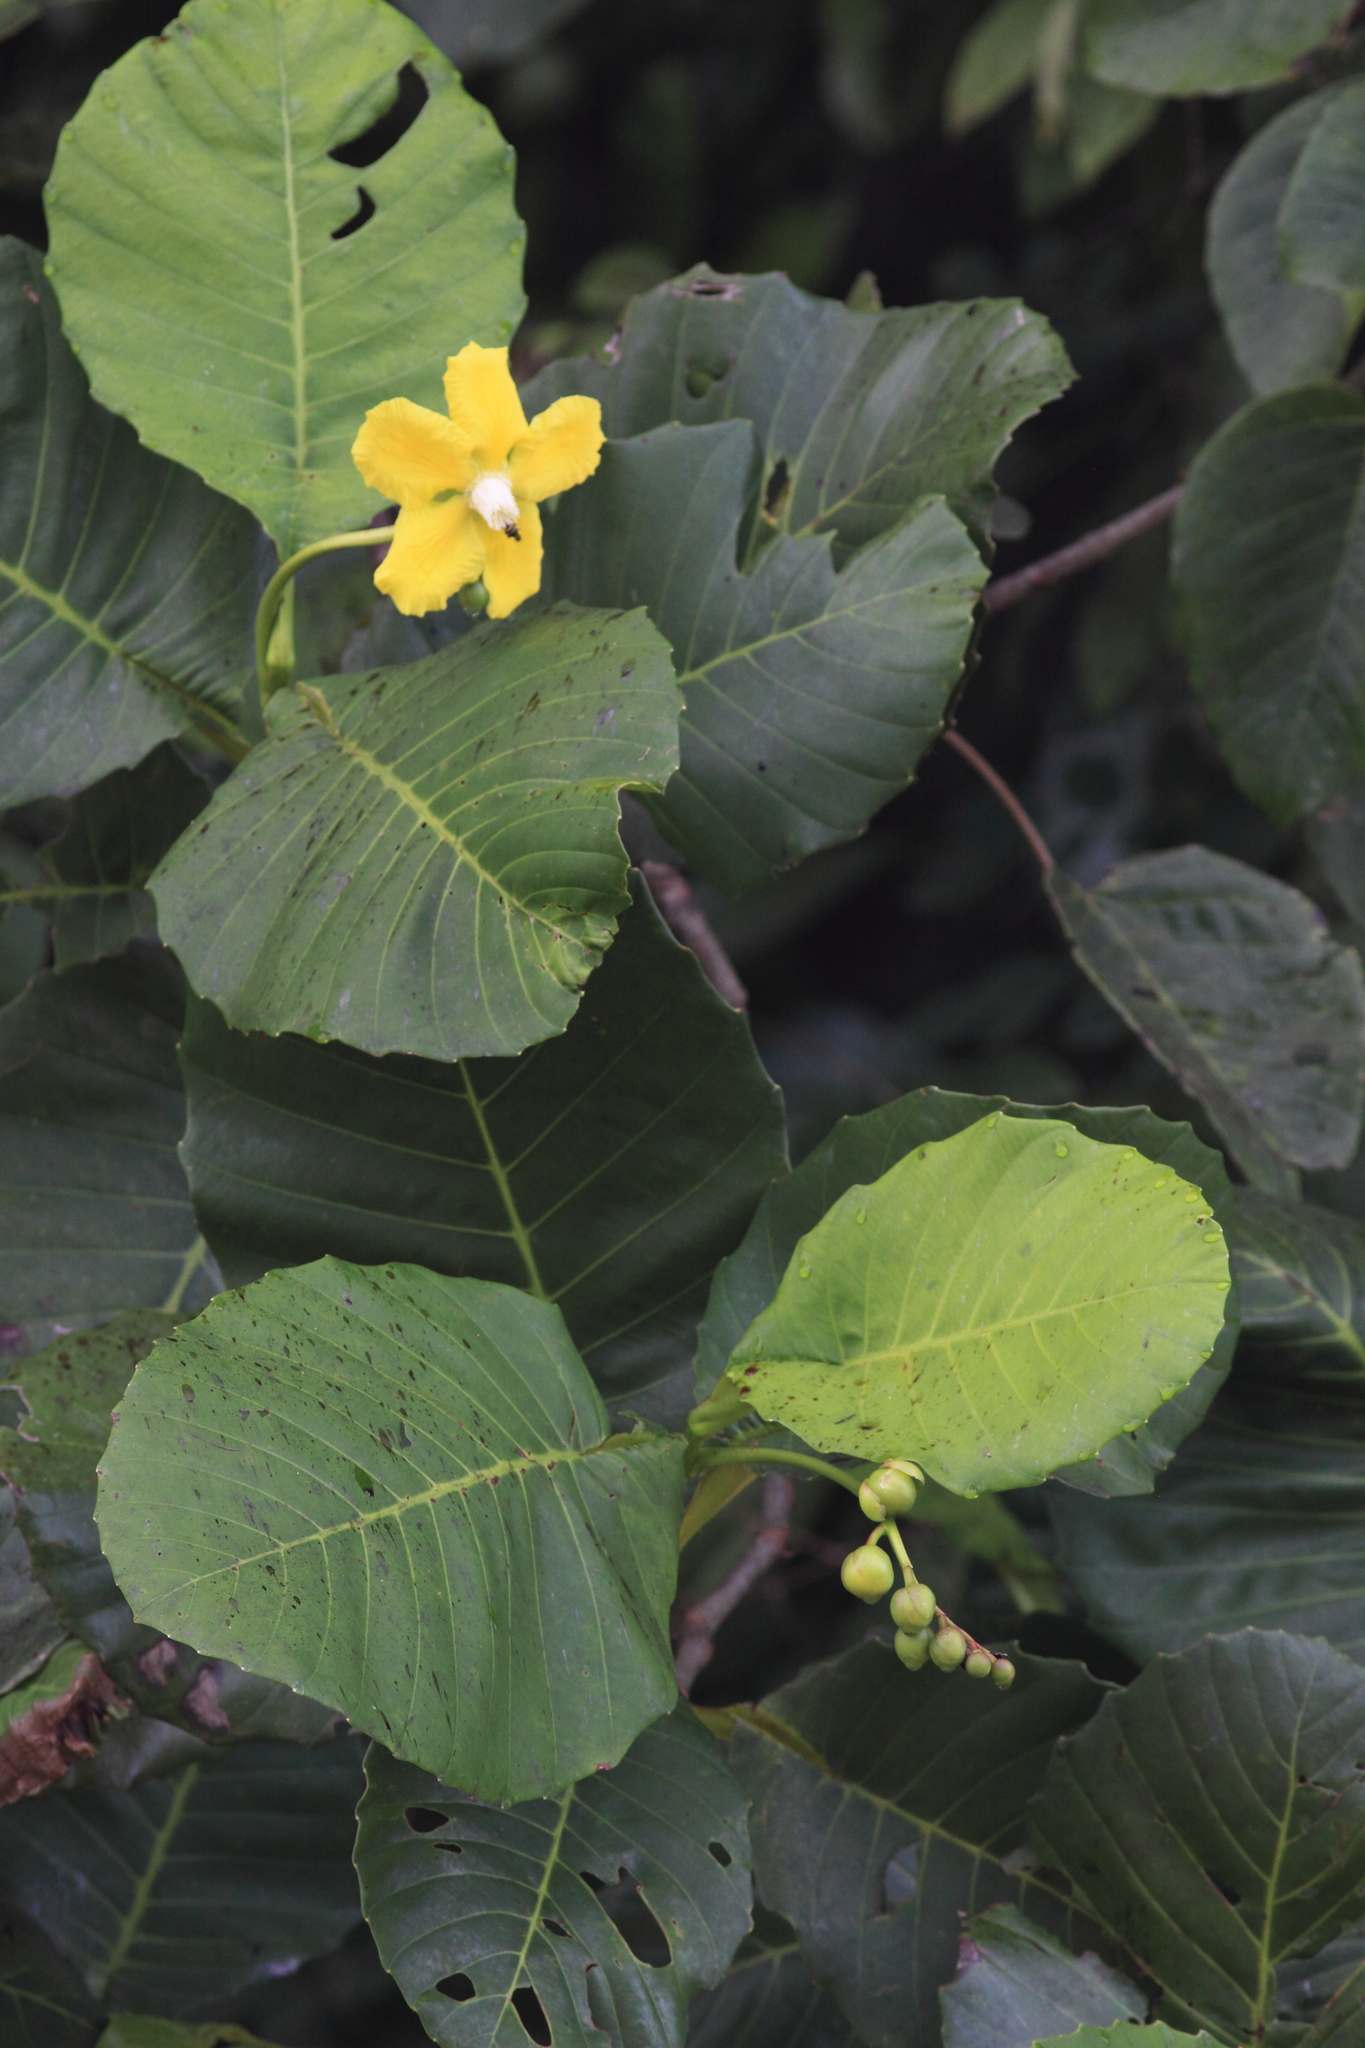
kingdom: Plantae
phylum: Tracheophyta
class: Magnoliopsida
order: Dilleniales
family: Dilleniaceae
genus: Dillenia
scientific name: Dillenia suffruticosa
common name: Shrubby dillenia
